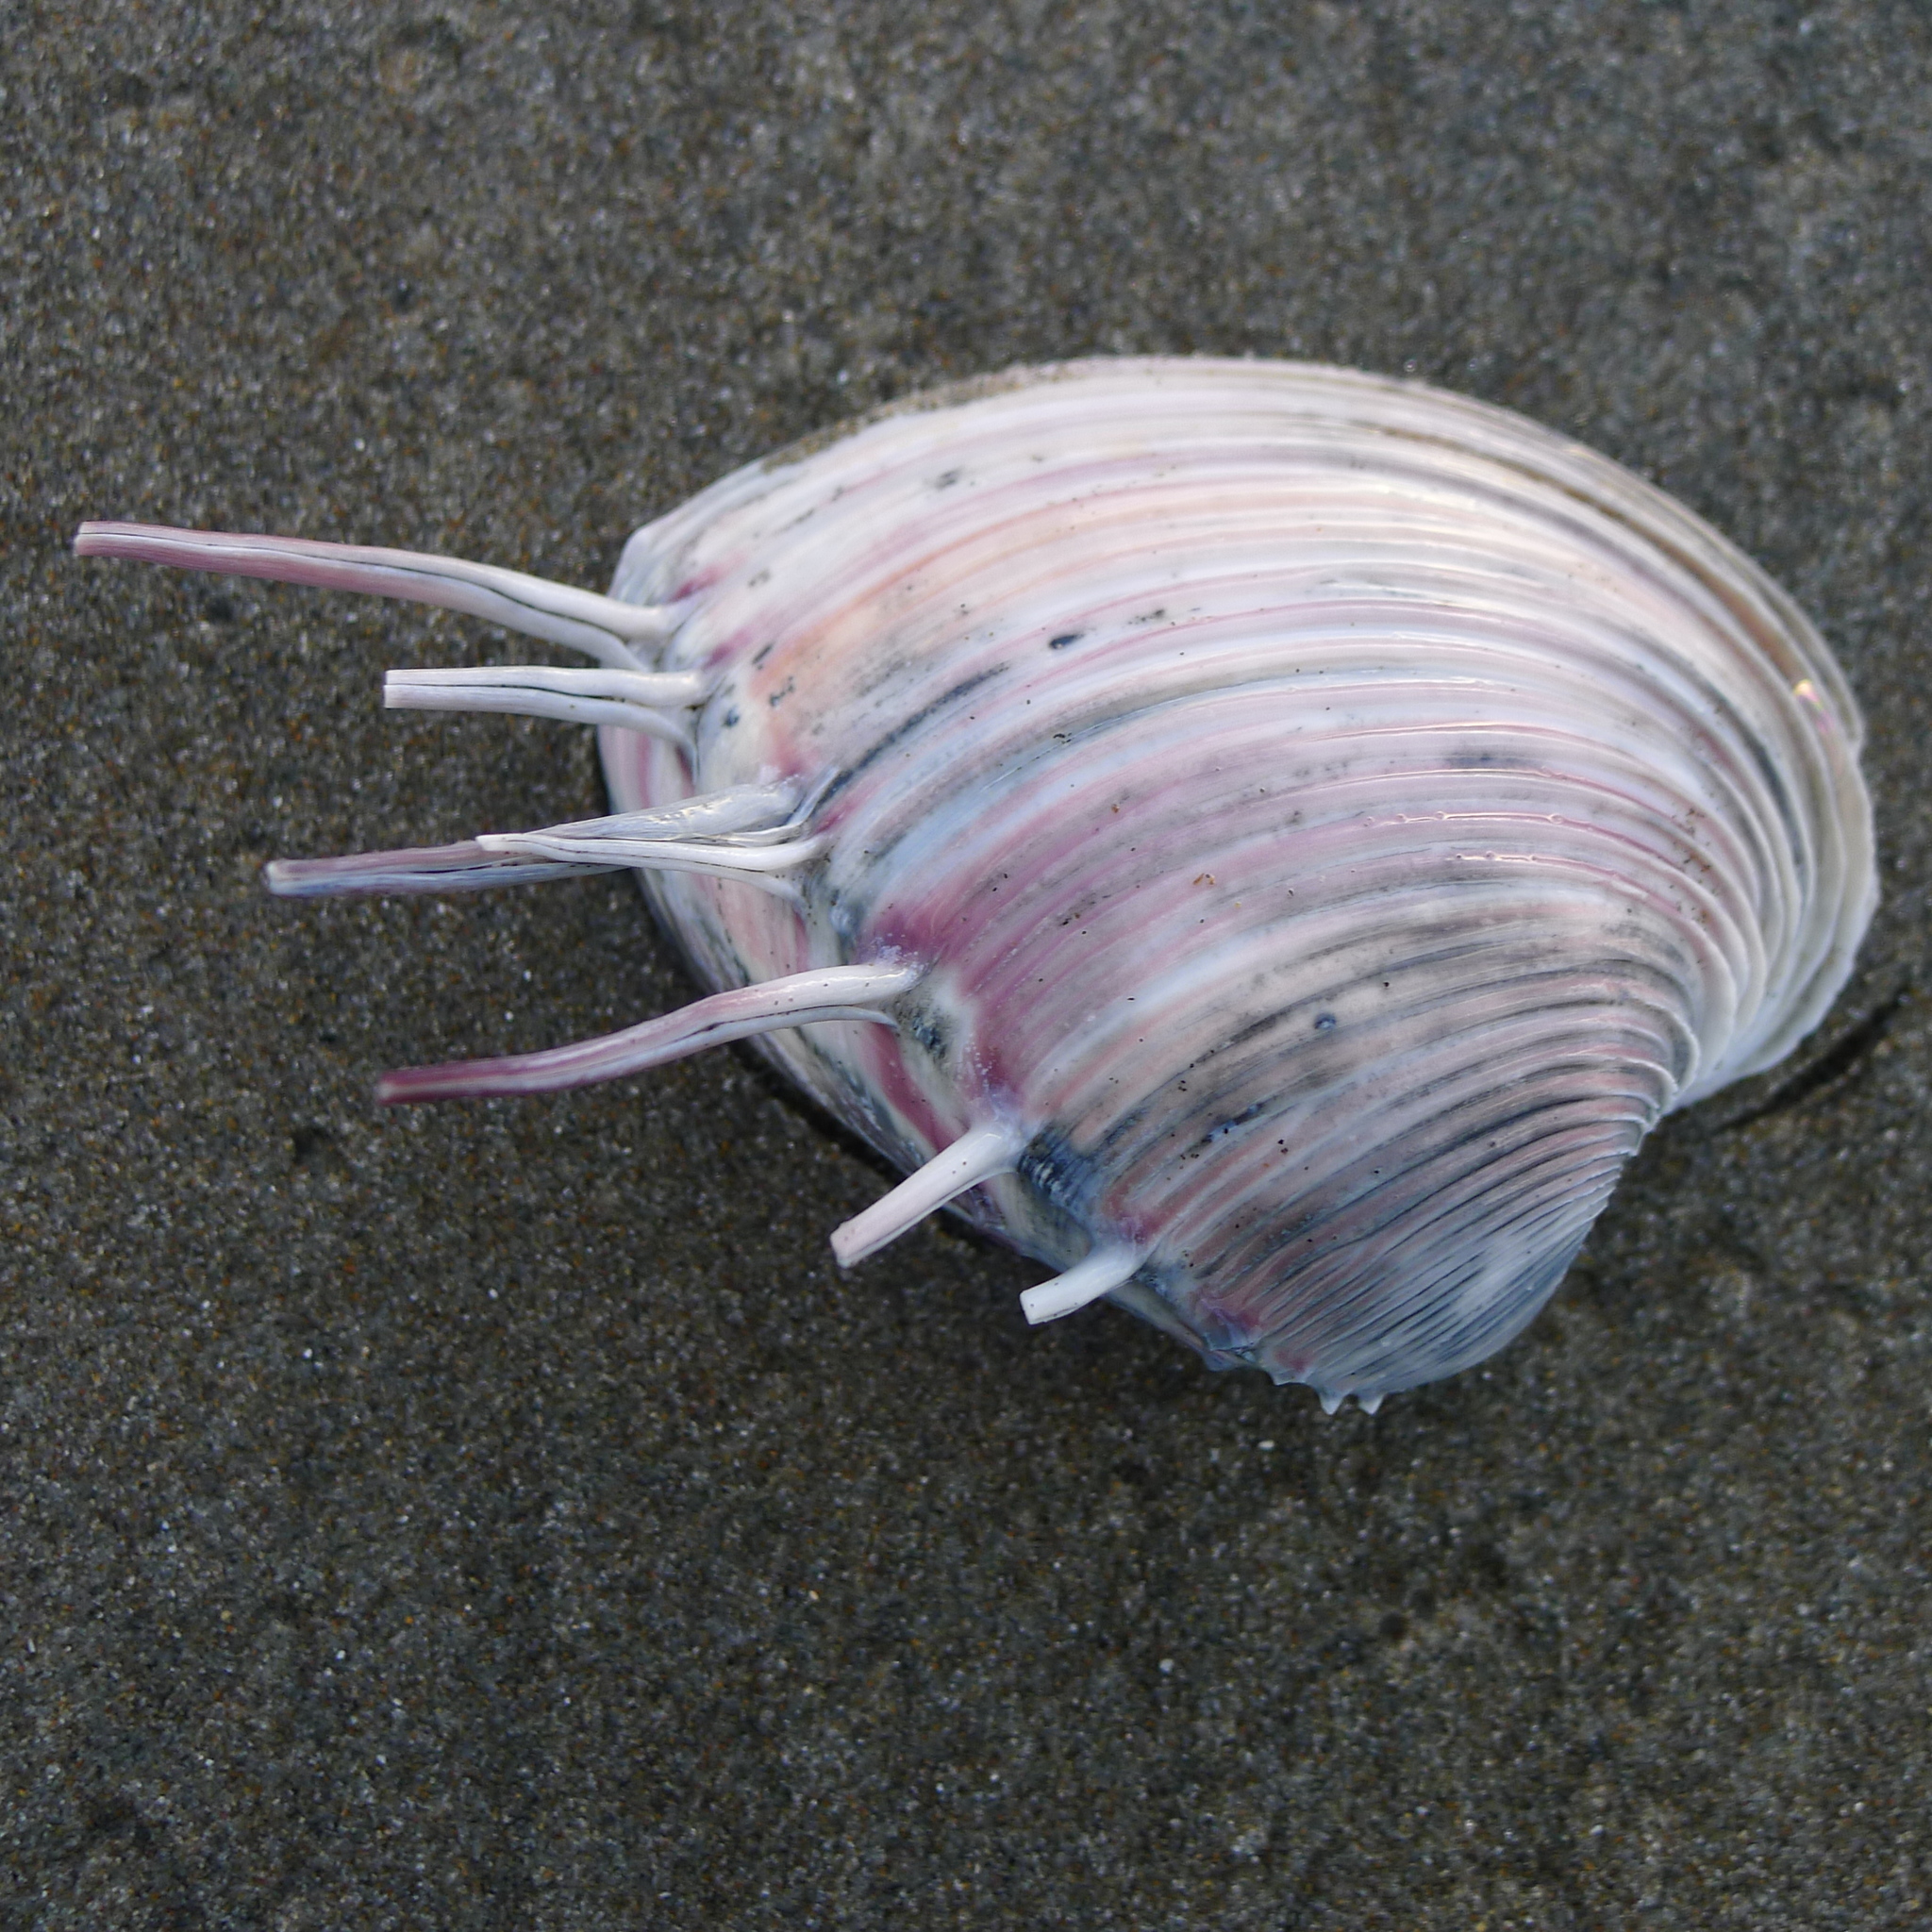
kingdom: Animalia
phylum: Mollusca
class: Bivalvia
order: Venerida
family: Veneridae
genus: Hysteroconcha
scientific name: Hysteroconcha lupanaria
